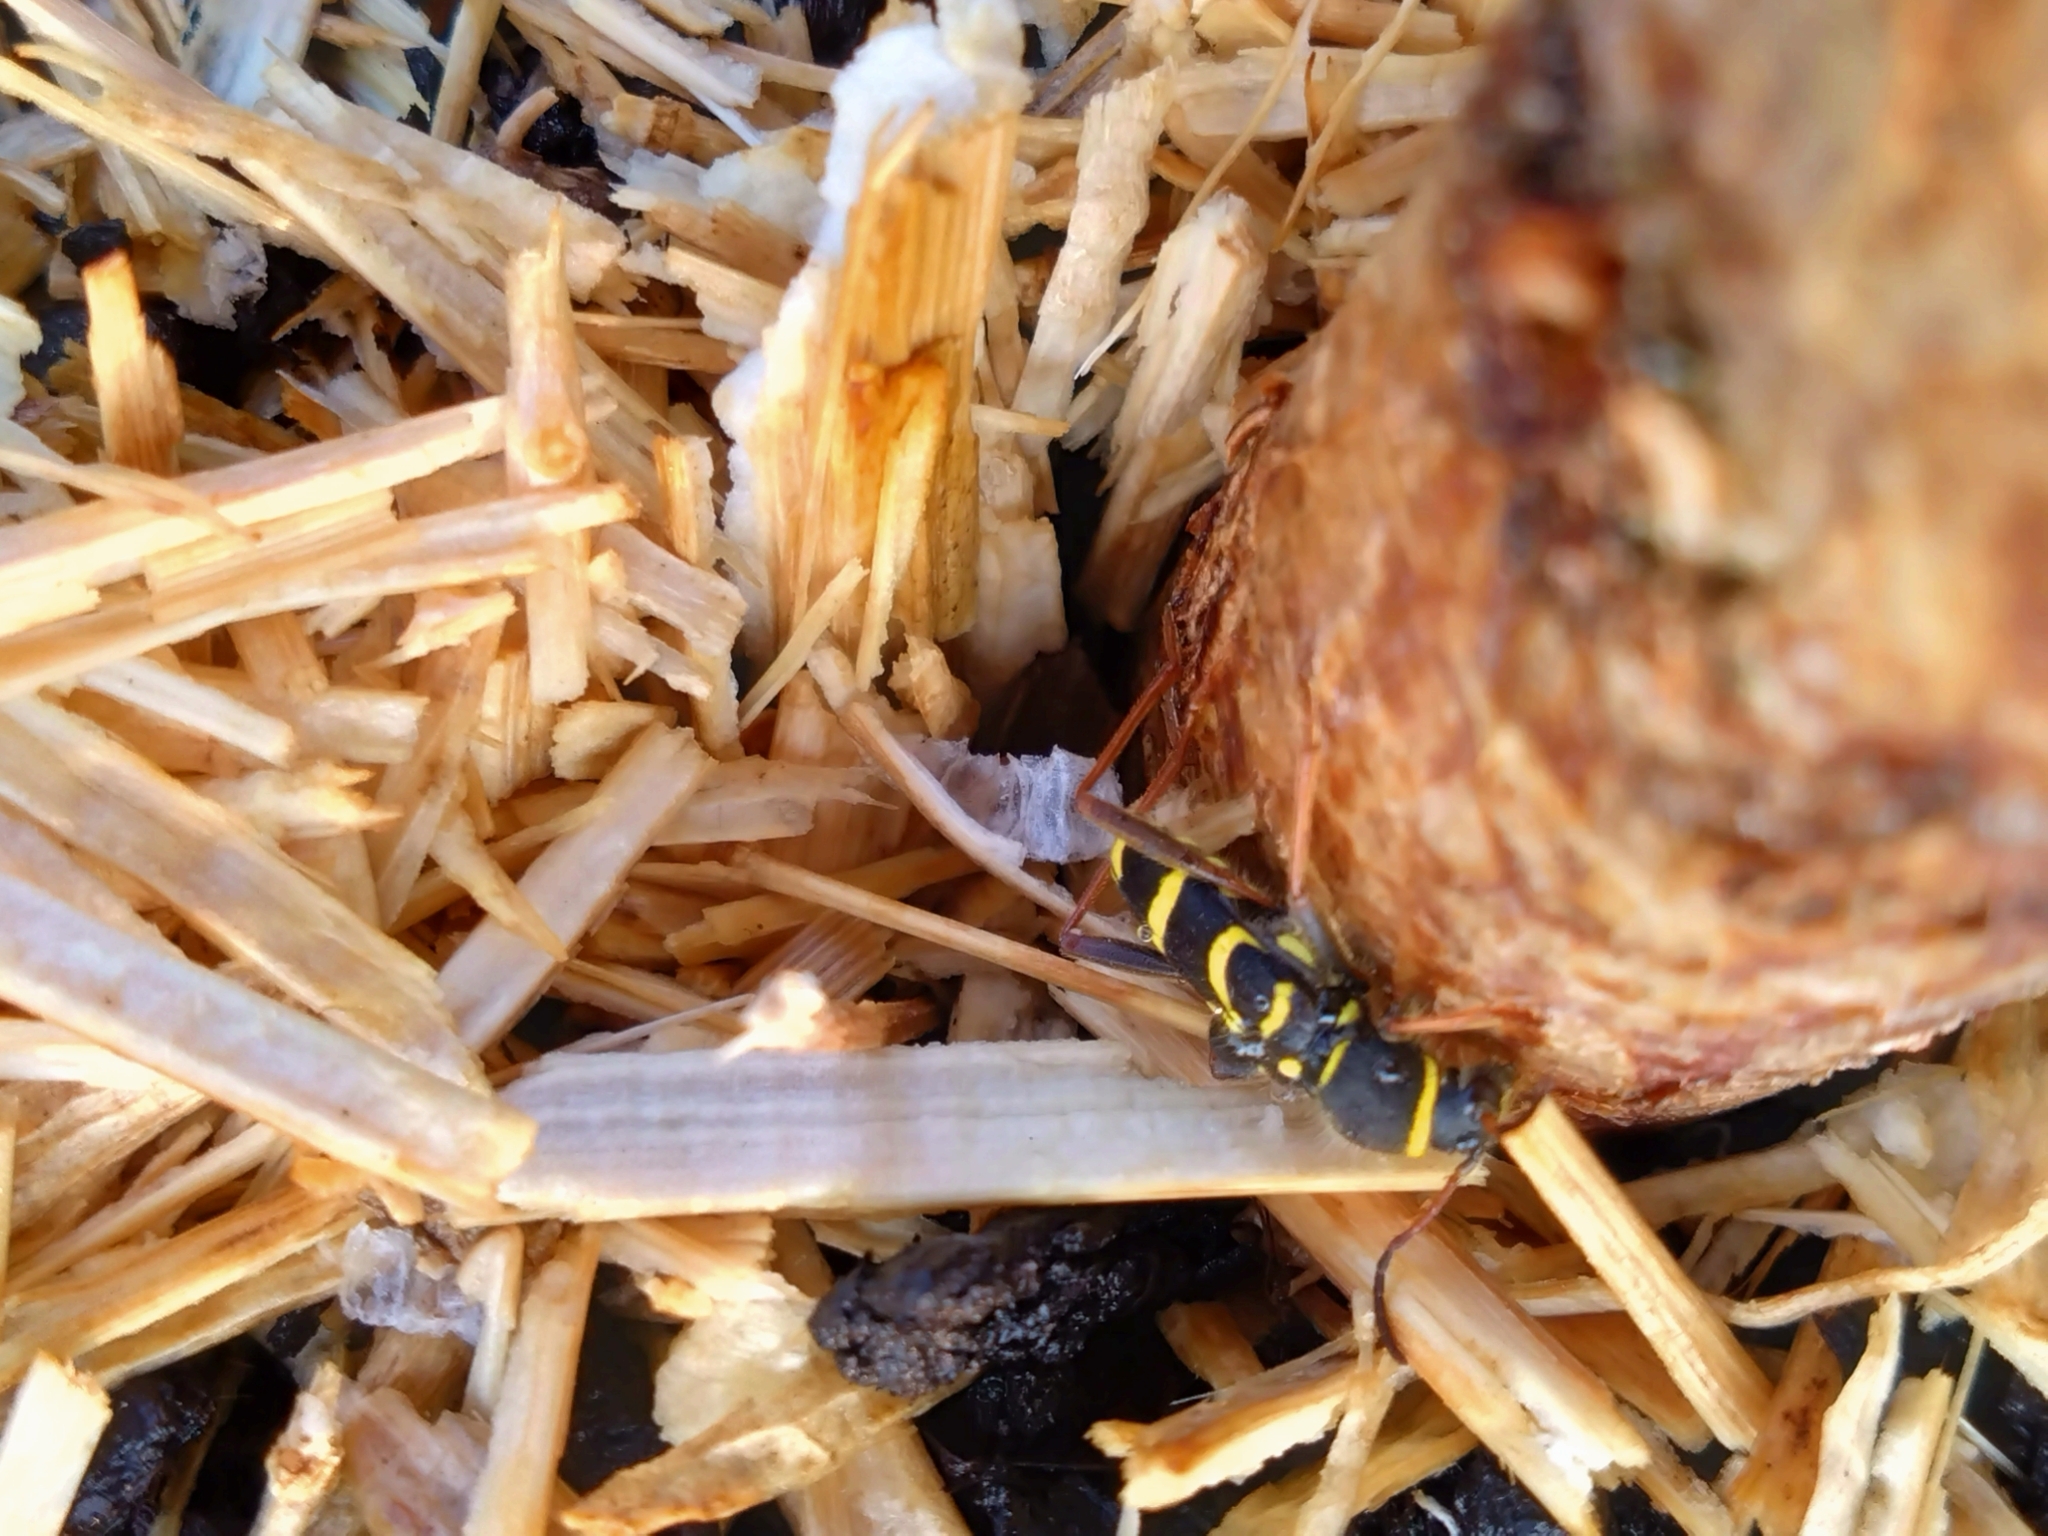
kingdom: Animalia
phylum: Arthropoda
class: Insecta
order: Coleoptera
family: Cerambycidae
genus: Clytus
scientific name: Clytus arietis
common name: Wasp beetle
